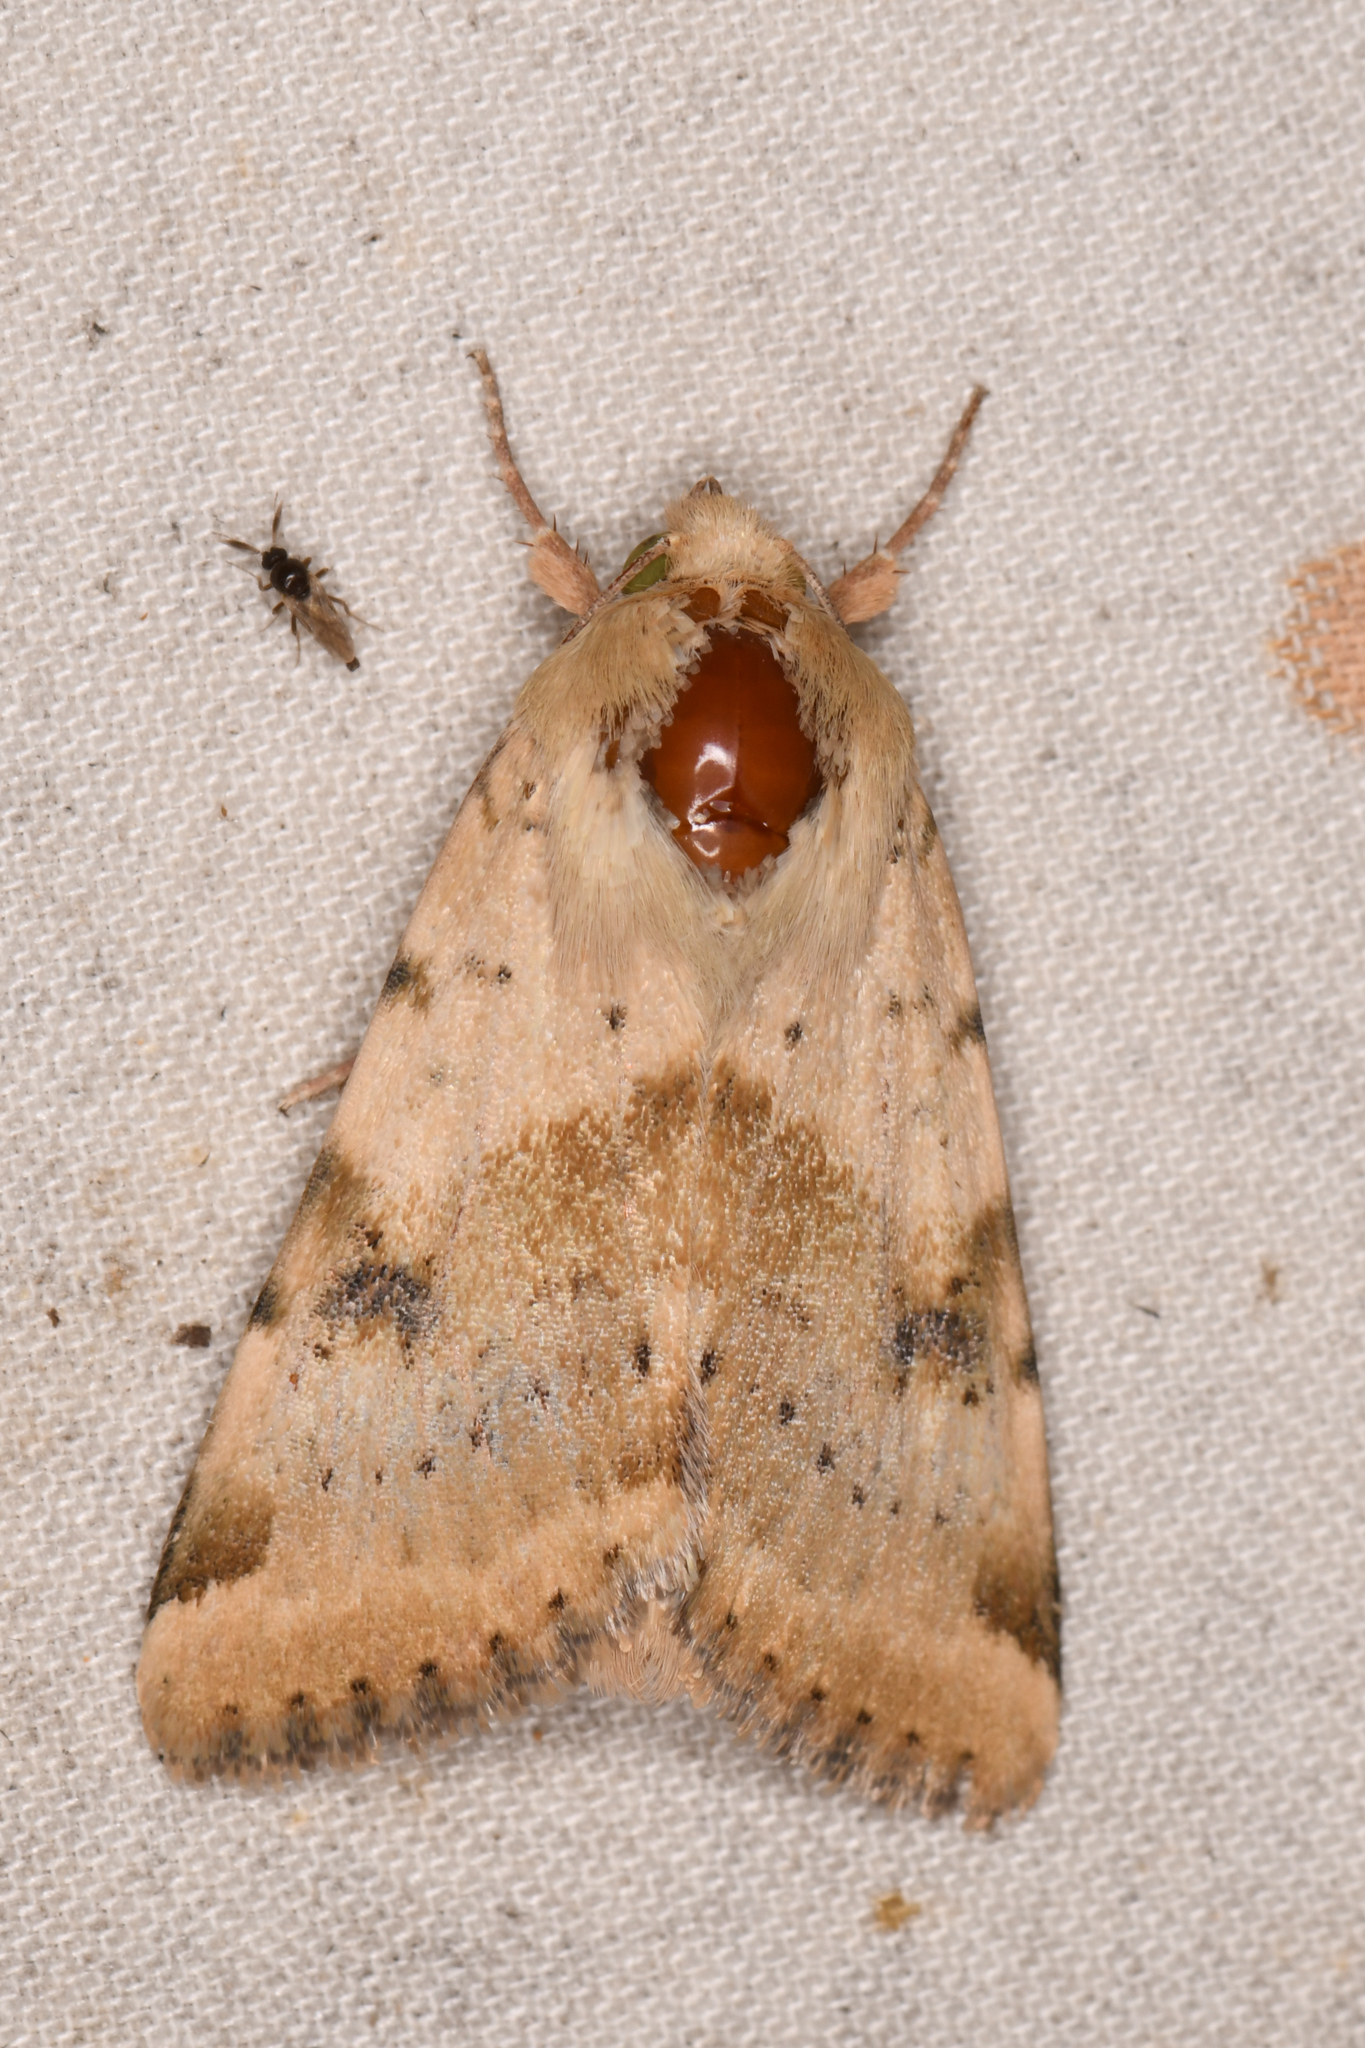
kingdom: Animalia
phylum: Arthropoda
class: Insecta
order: Lepidoptera
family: Noctuidae
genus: Heliothis
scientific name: Heliothis phloxiphaga
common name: Darker spotted straw moth
